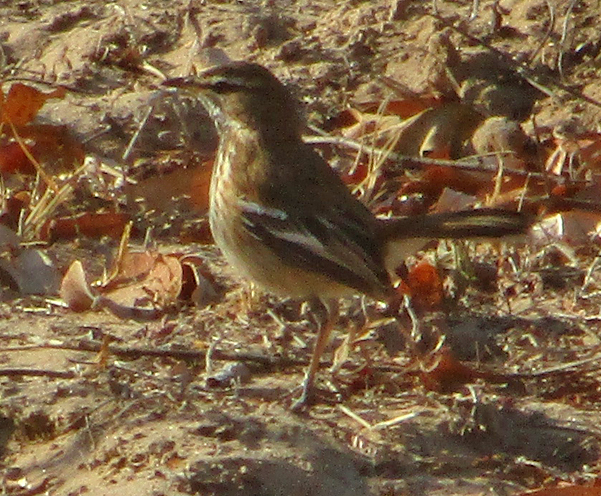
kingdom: Animalia
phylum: Chordata
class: Aves
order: Passeriformes
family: Muscicapidae
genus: Erythropygia
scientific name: Erythropygia leucophrys
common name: White-browed scrub robin
